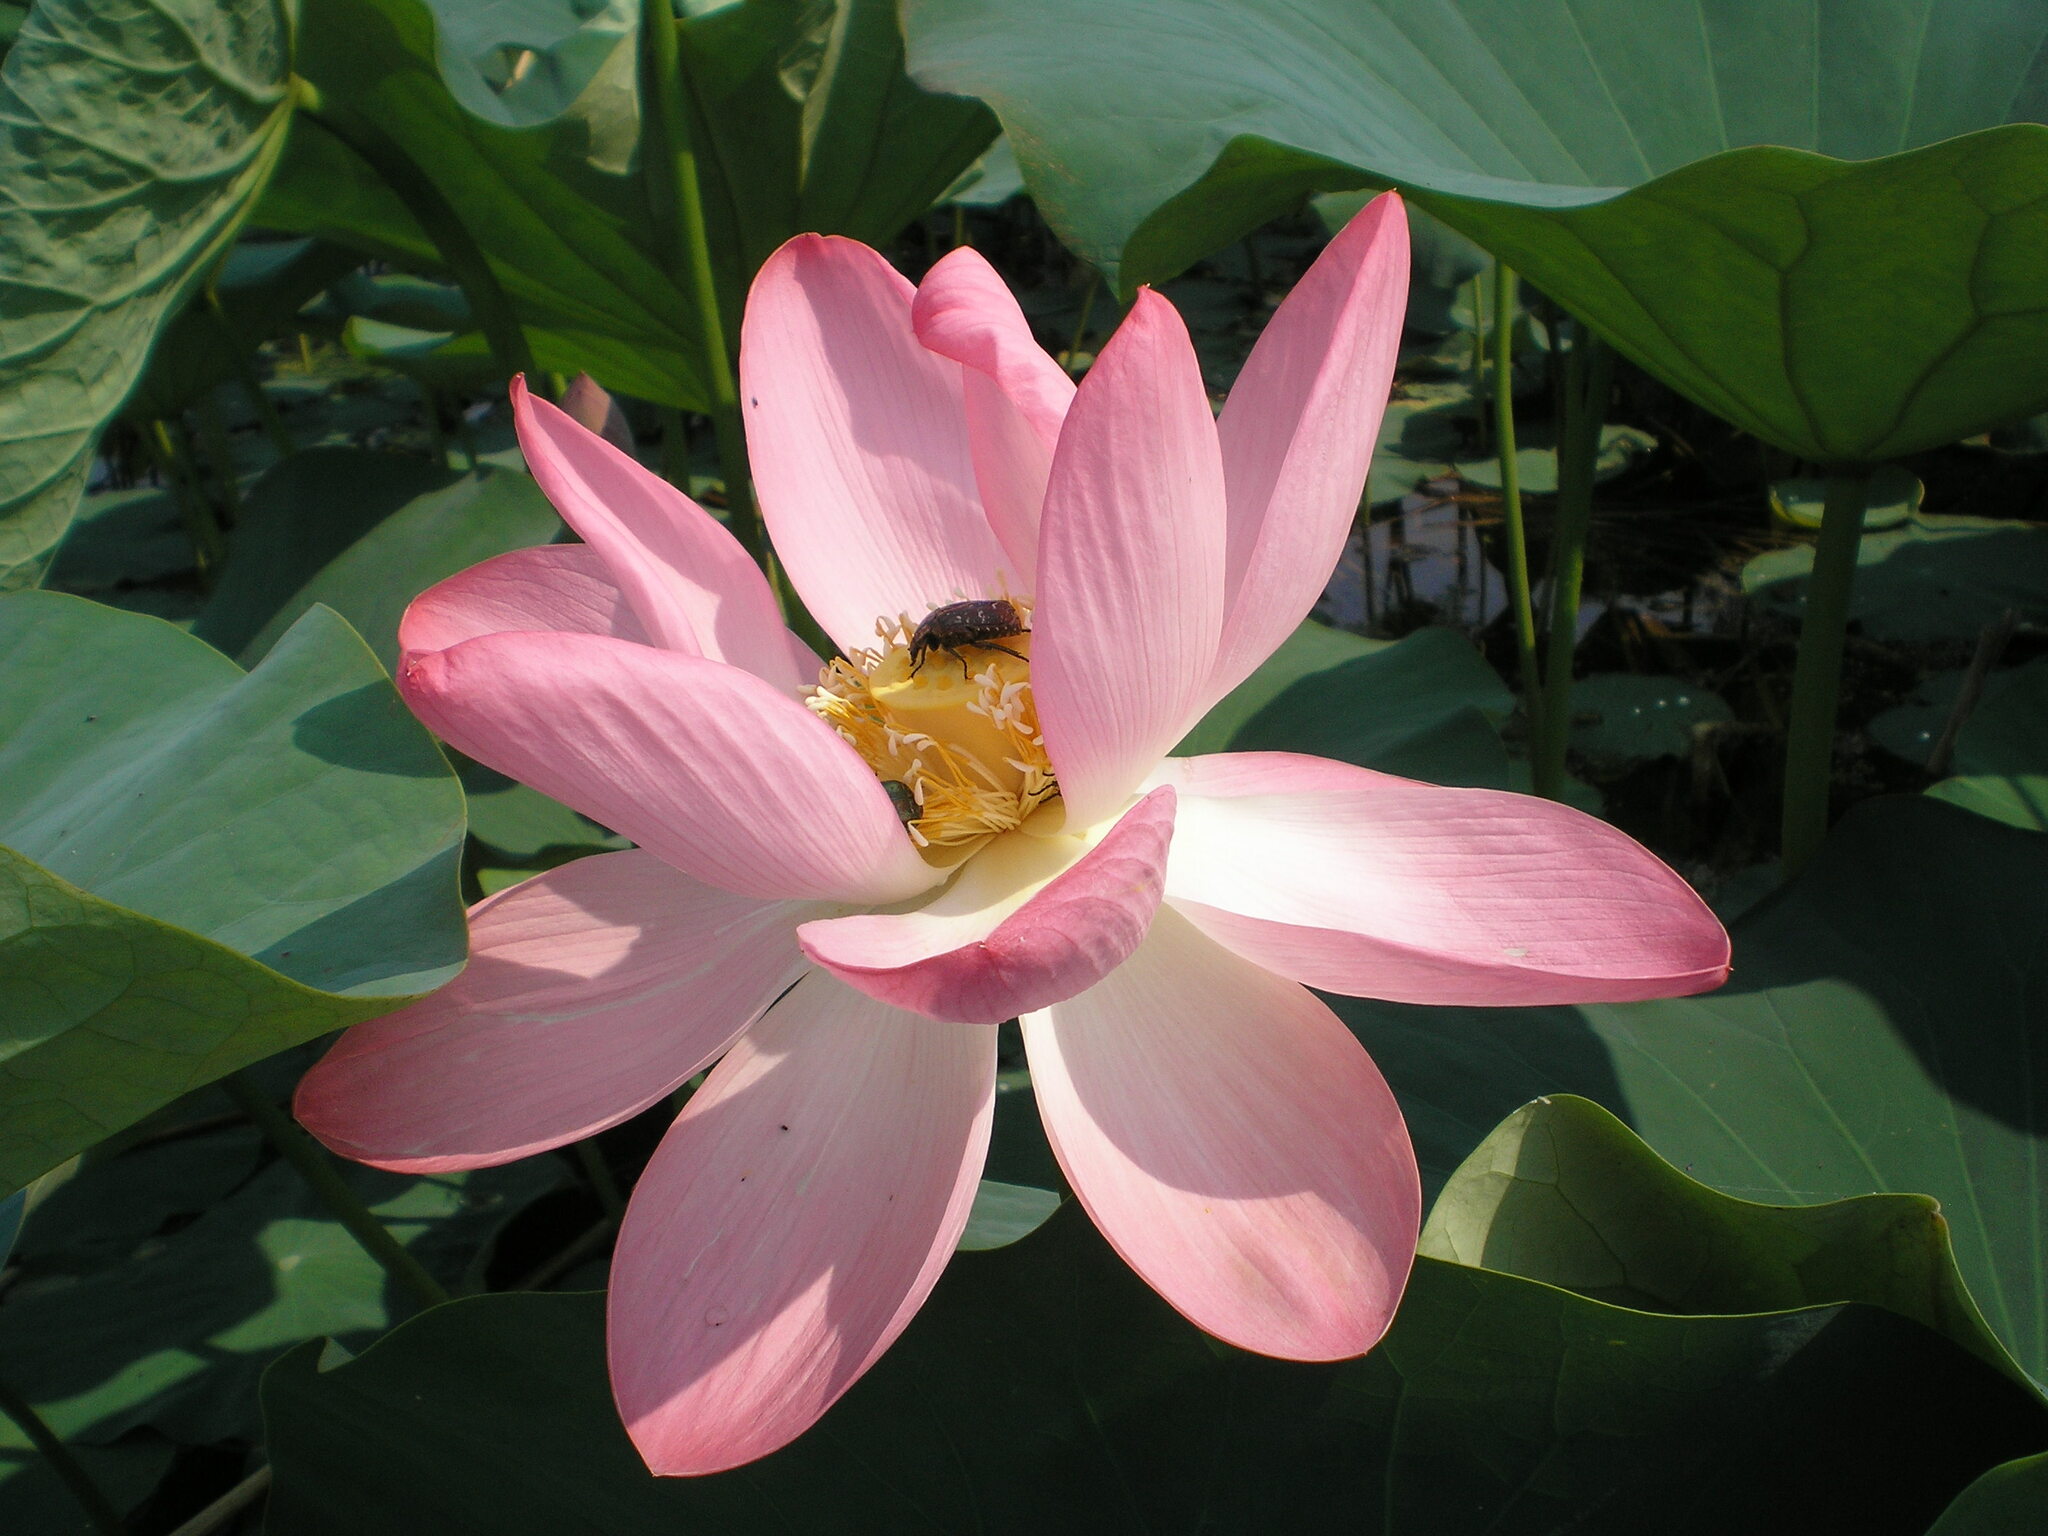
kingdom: Plantae
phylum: Tracheophyta
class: Magnoliopsida
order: Proteales
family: Nelumbonaceae
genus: Nelumbo
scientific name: Nelumbo nucifera
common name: Sacred lotus
